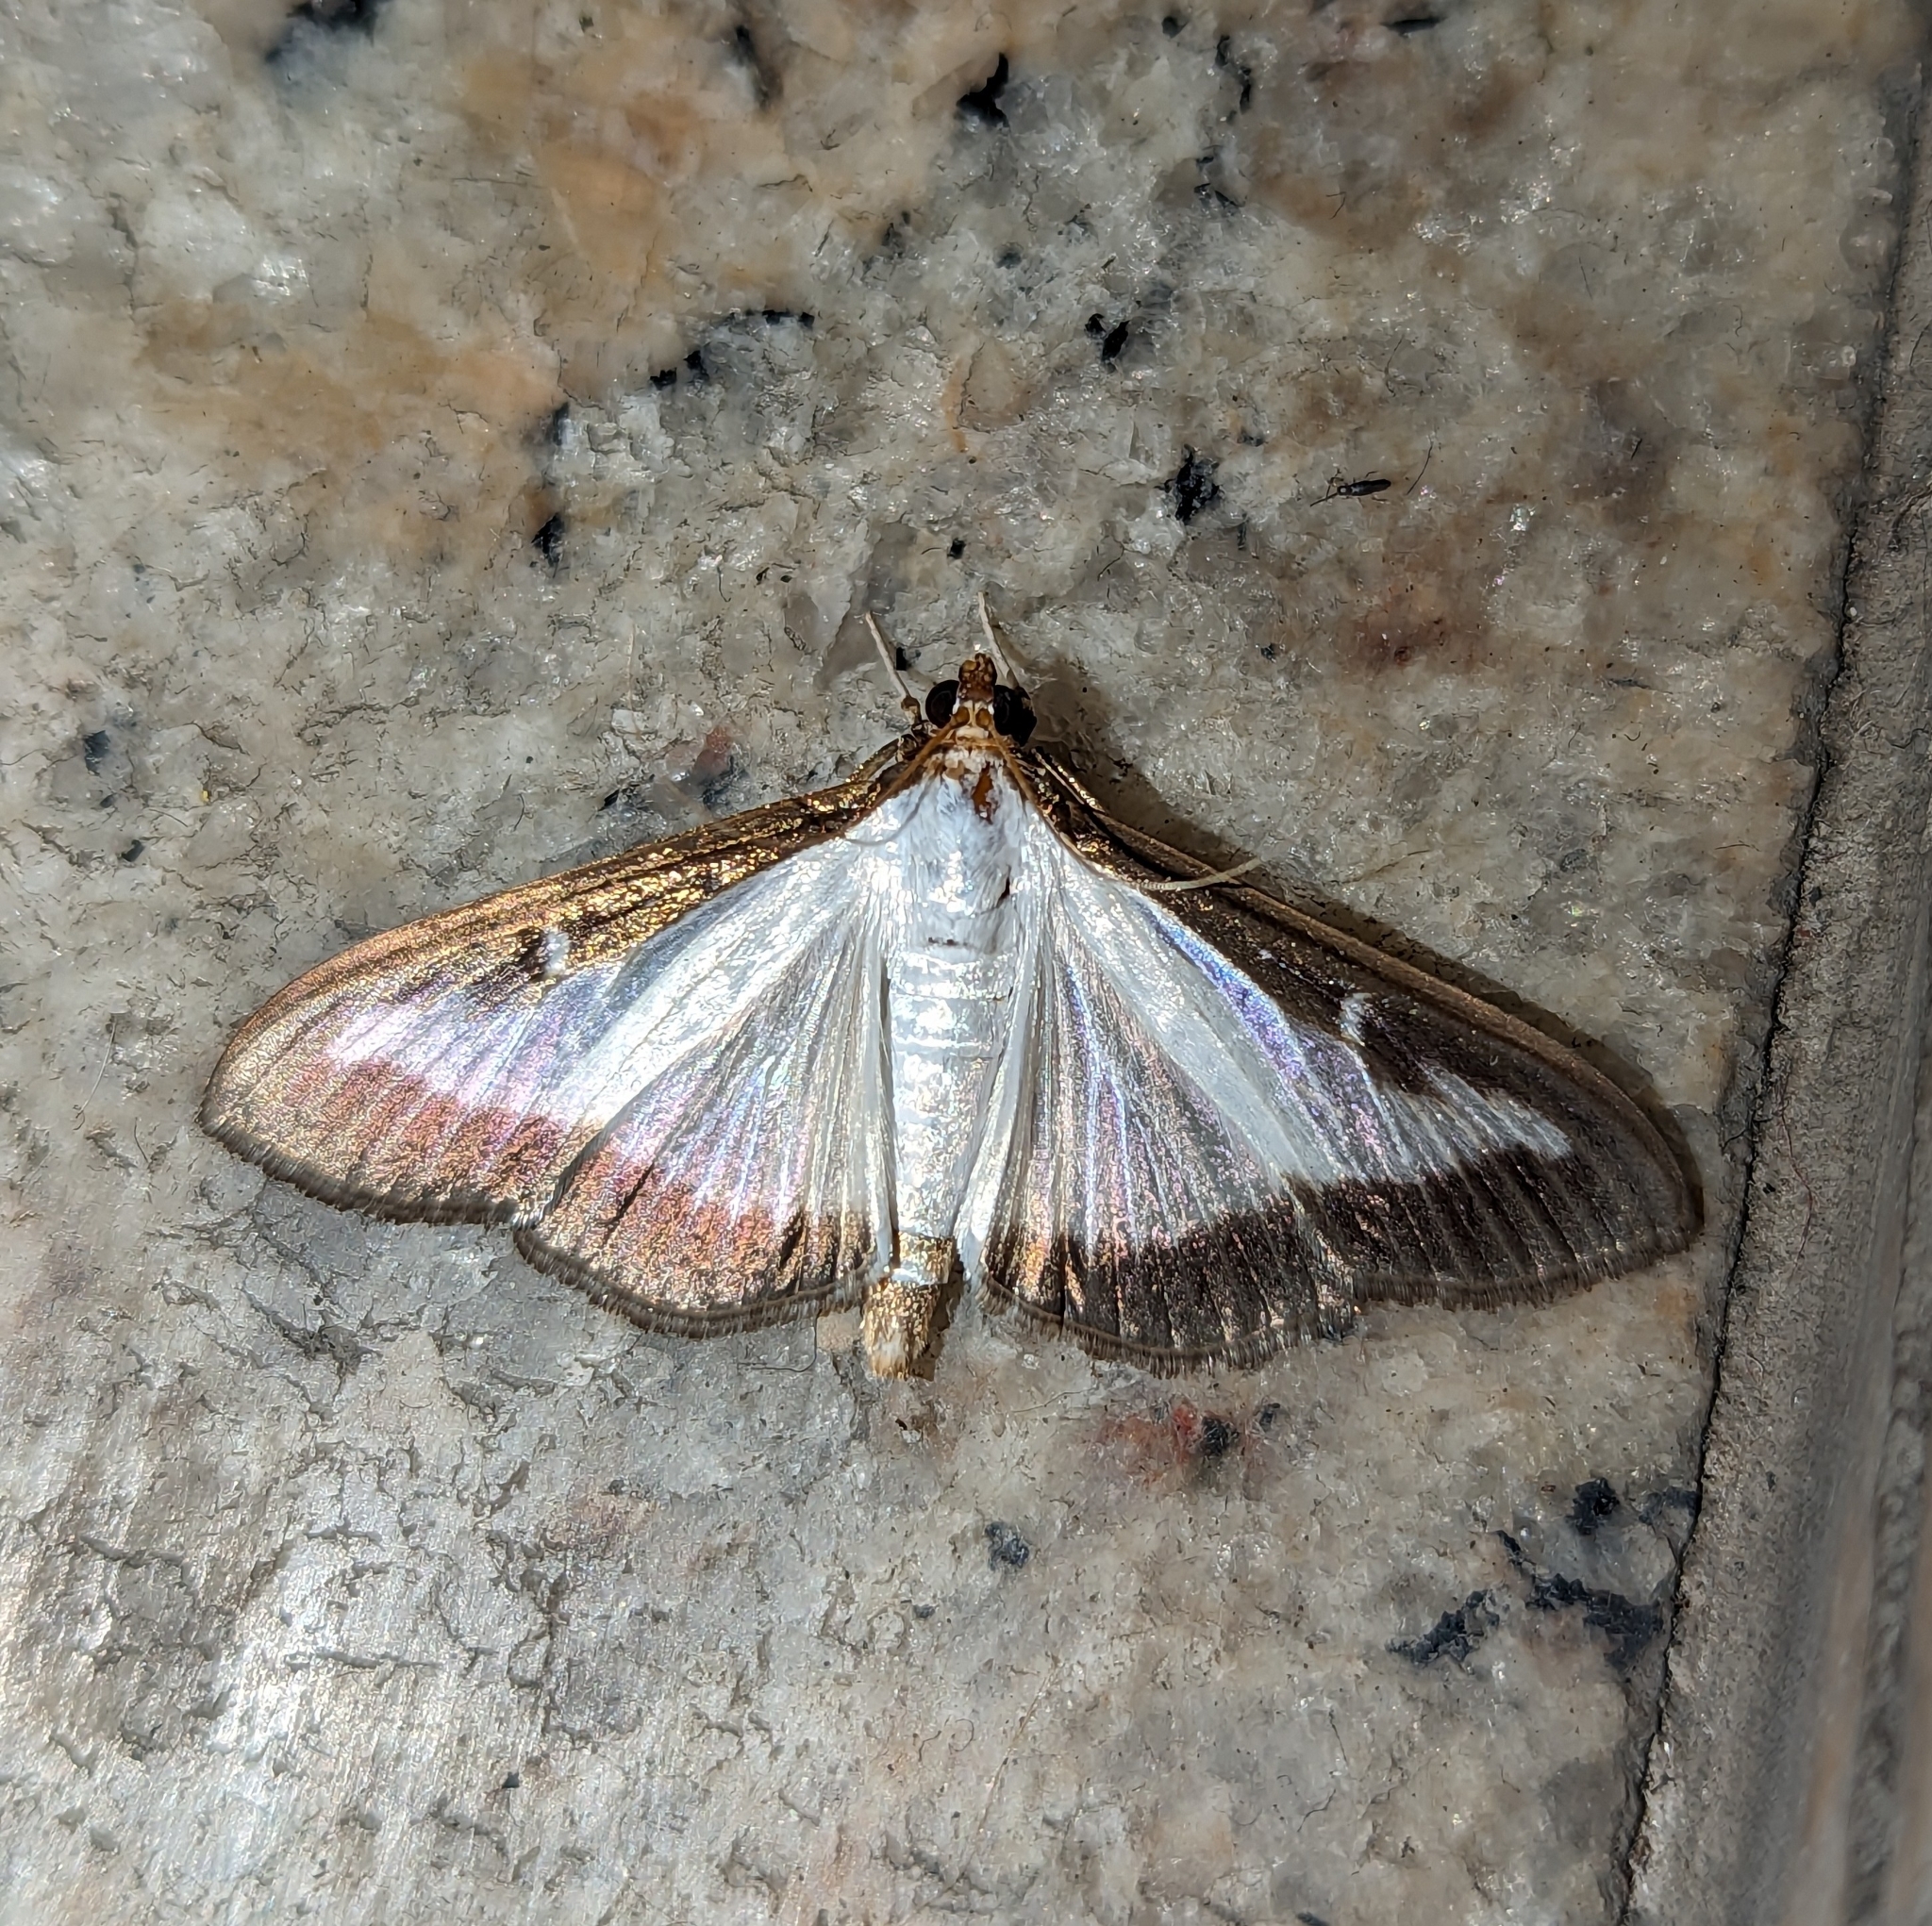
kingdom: Animalia
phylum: Arthropoda
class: Insecta
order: Lepidoptera
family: Crambidae
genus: Cydalima
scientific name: Cydalima perspectalis
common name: Box tree moth
